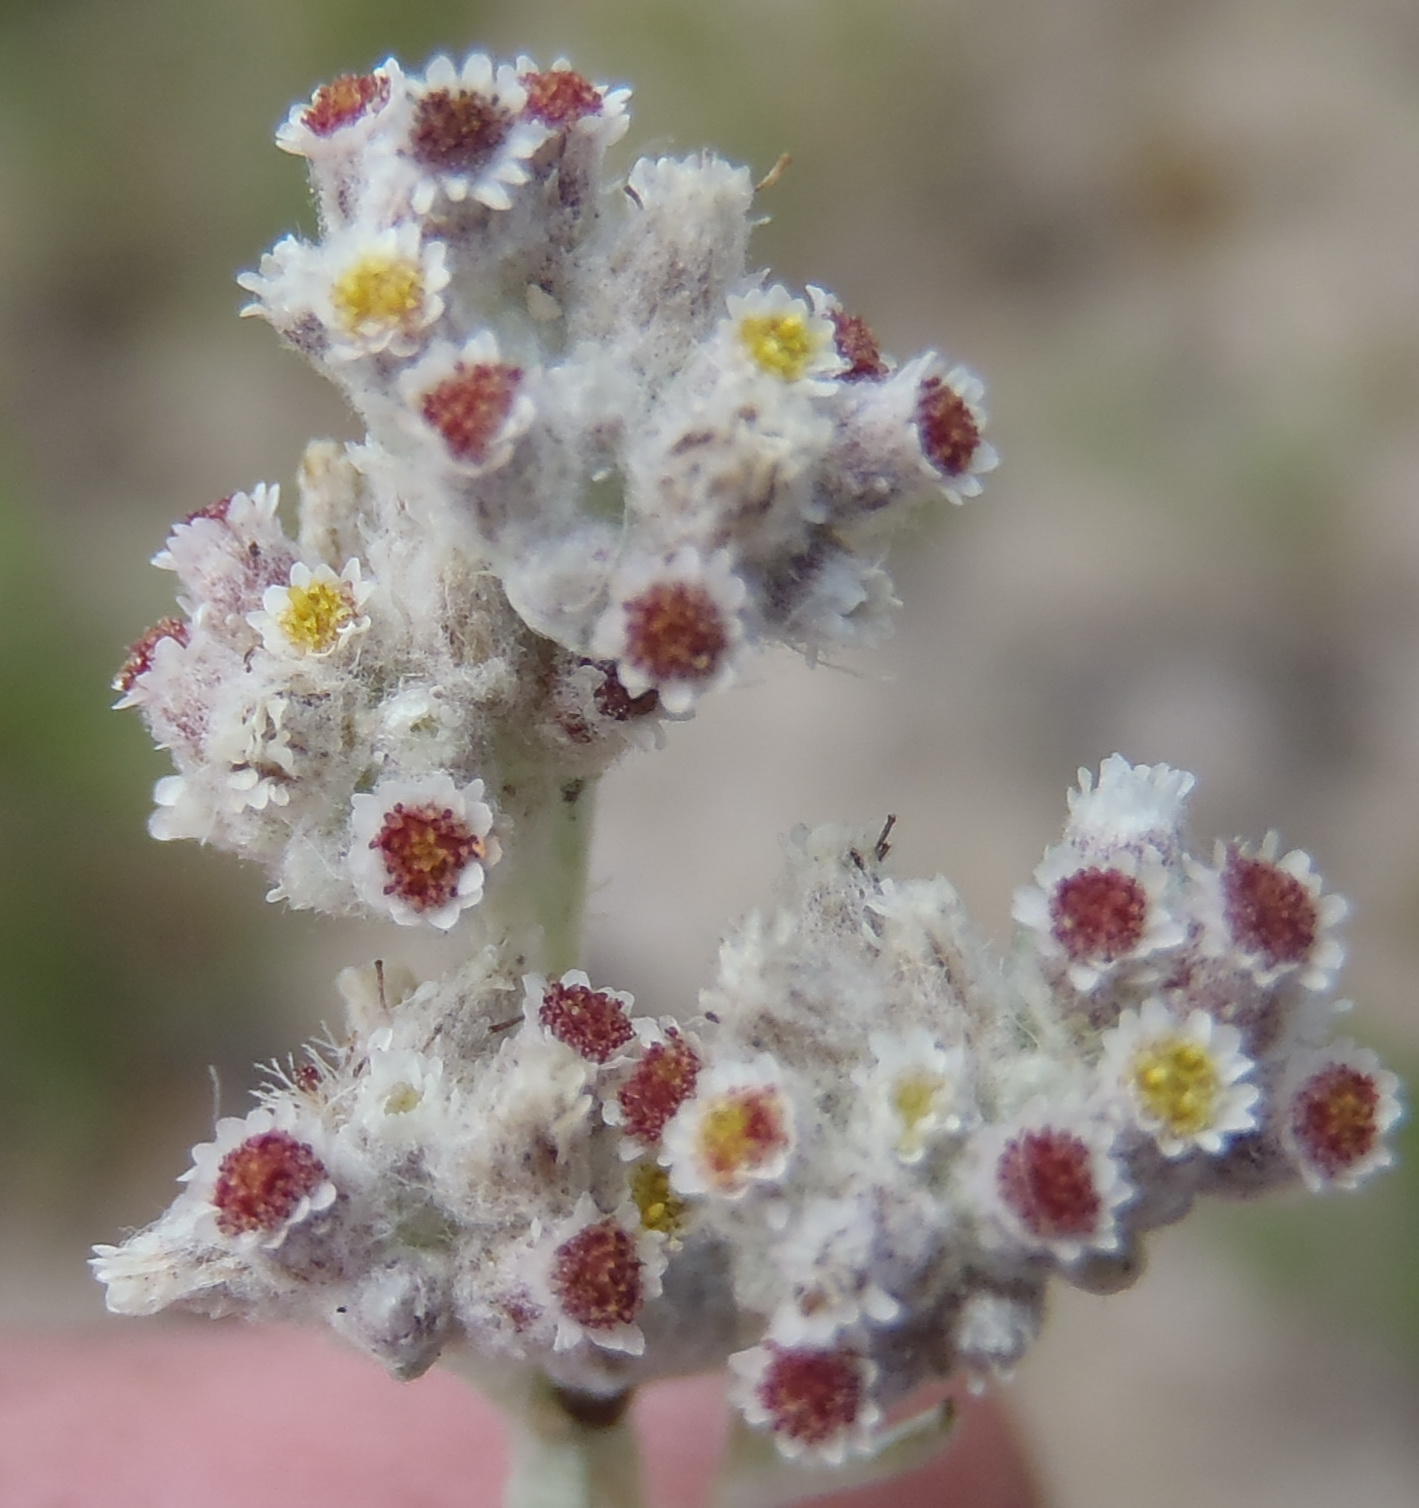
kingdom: Plantae
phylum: Tracheophyta
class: Magnoliopsida
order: Asterales
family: Asteraceae
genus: Vellereophyton
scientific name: Vellereophyton dealbatum
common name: White-cudweed
